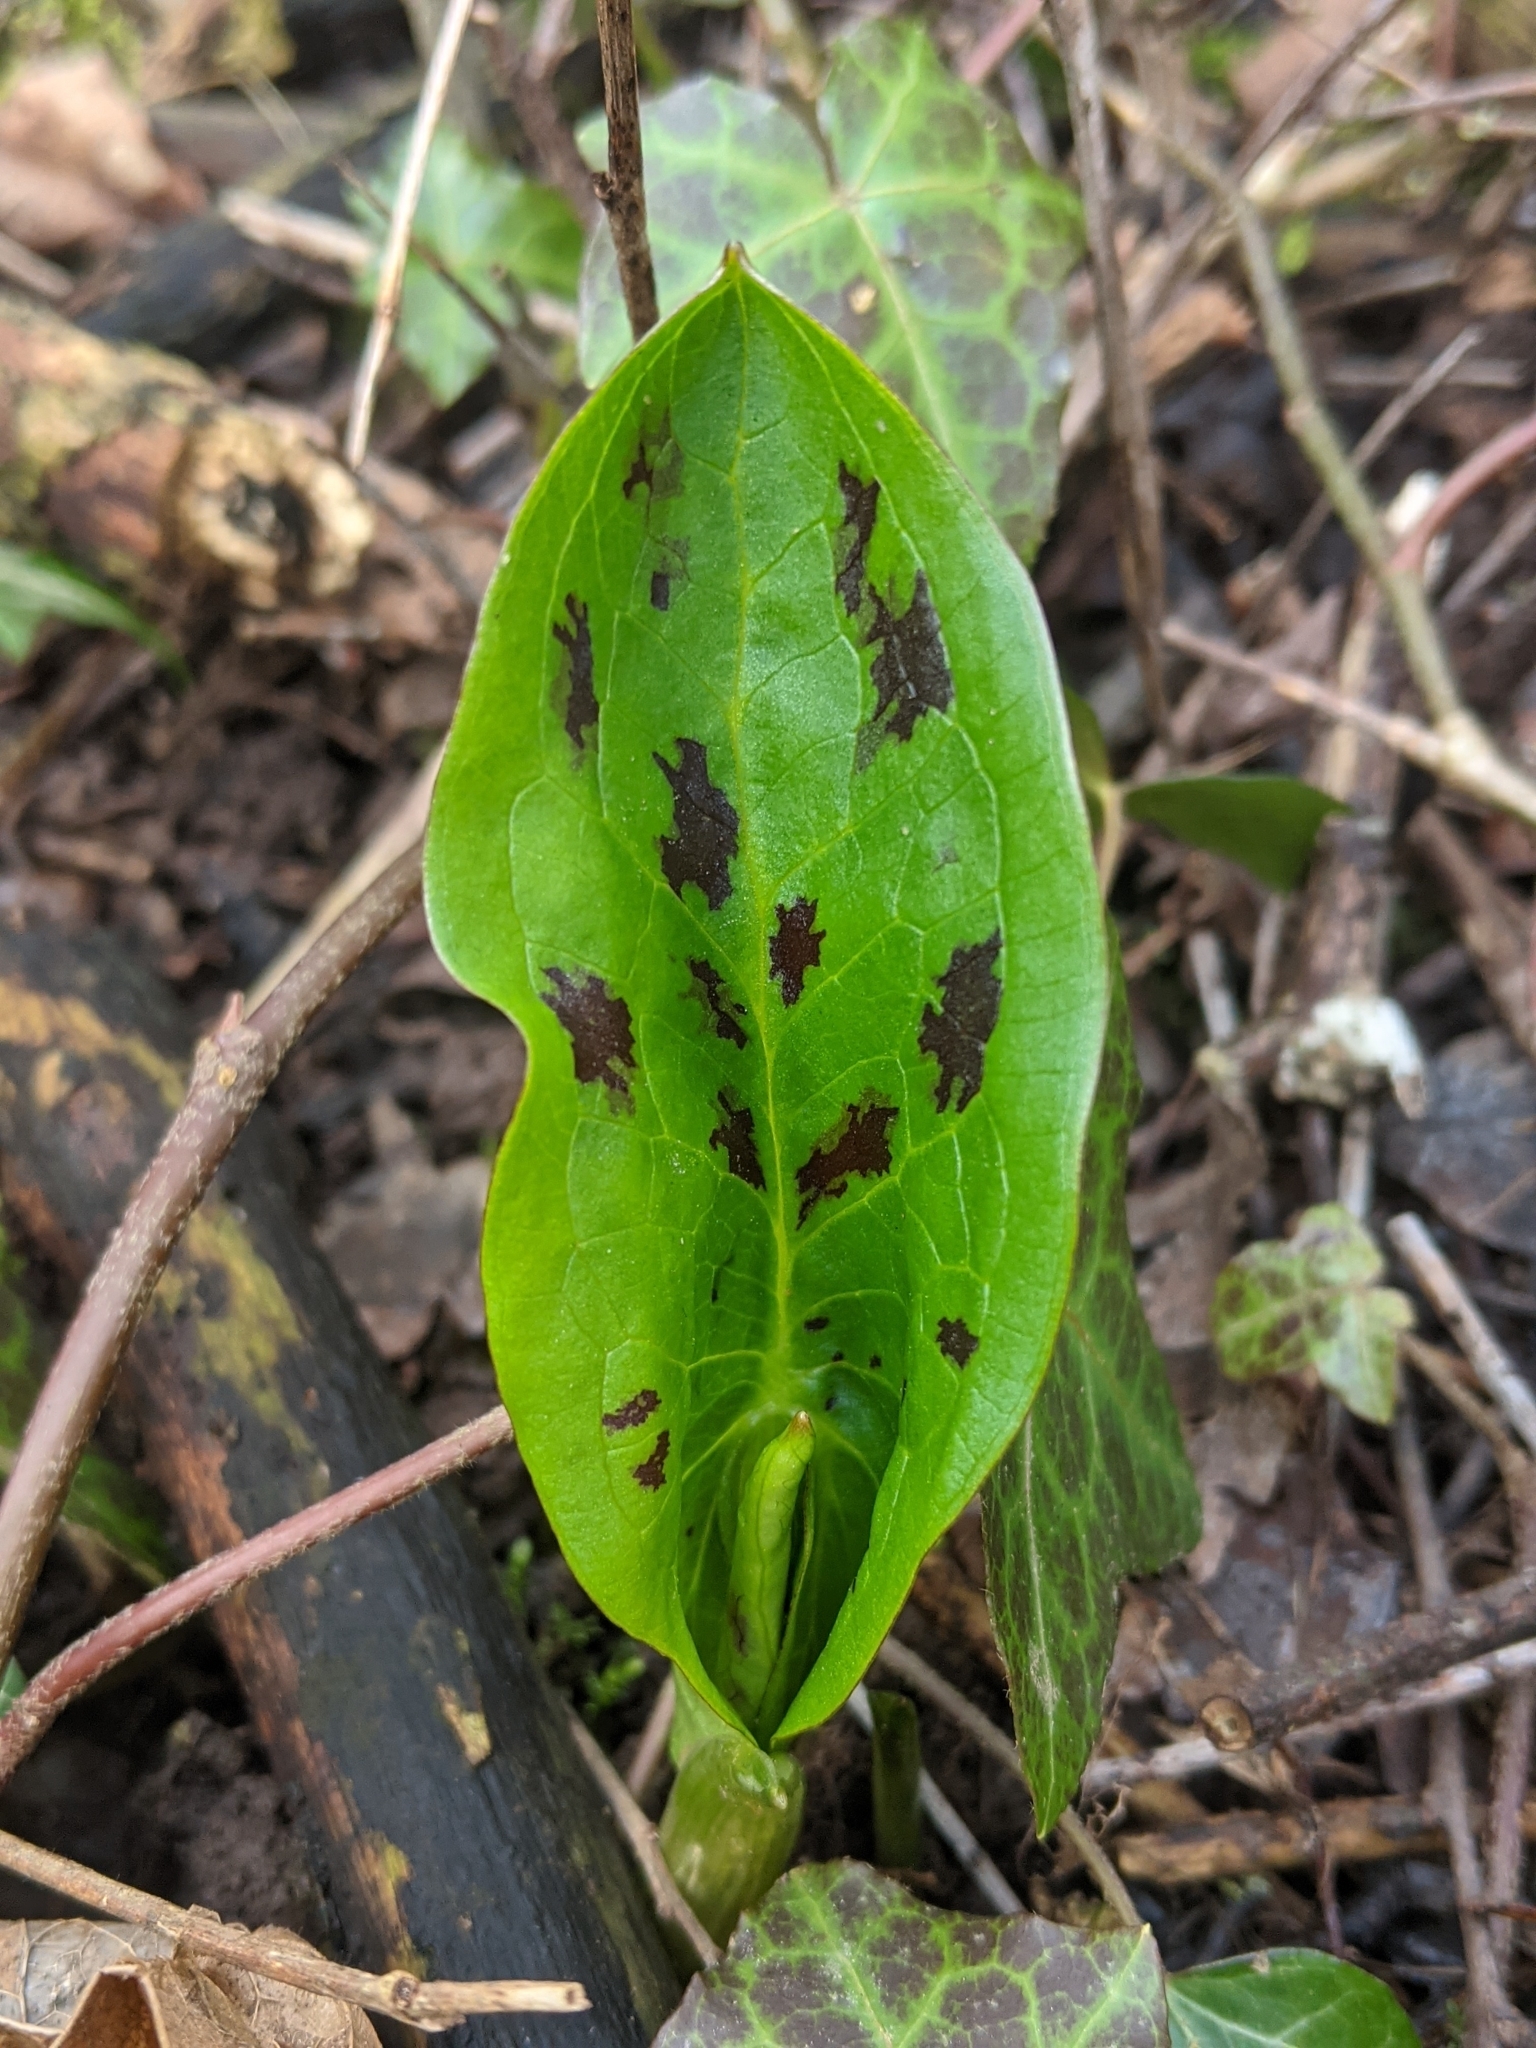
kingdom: Plantae
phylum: Tracheophyta
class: Liliopsida
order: Alismatales
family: Araceae
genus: Arum
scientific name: Arum maculatum
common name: Lords-and-ladies
